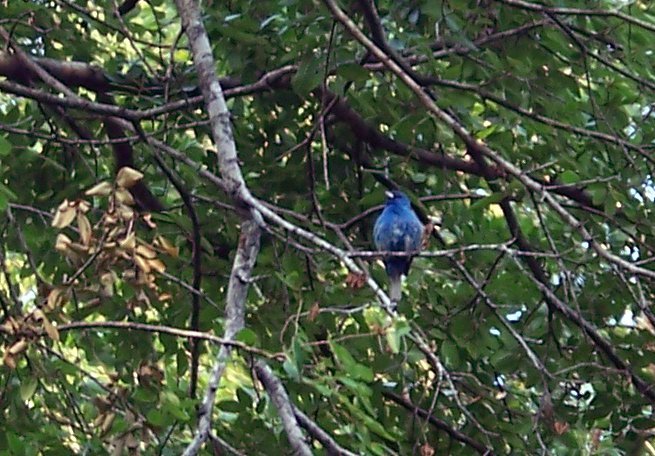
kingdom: Animalia
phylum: Chordata
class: Aves
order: Passeriformes
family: Cardinalidae
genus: Passerina
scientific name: Passerina cyanea
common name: Indigo bunting
